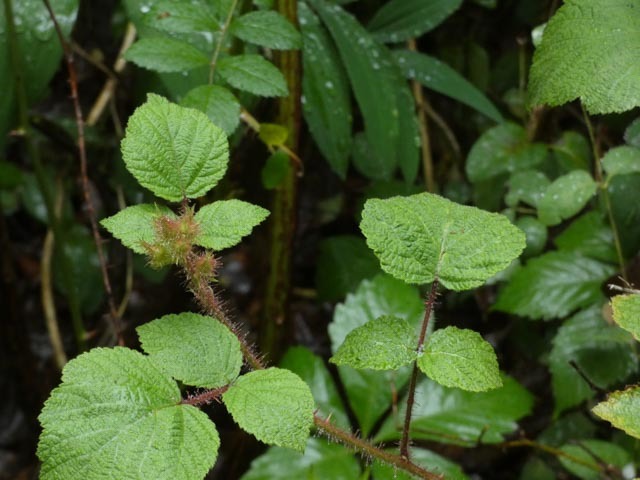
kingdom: Plantae
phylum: Tracheophyta
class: Magnoliopsida
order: Rosales
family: Rosaceae
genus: Rubus
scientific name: Rubus phoenicolasius
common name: Japanese wineberry
